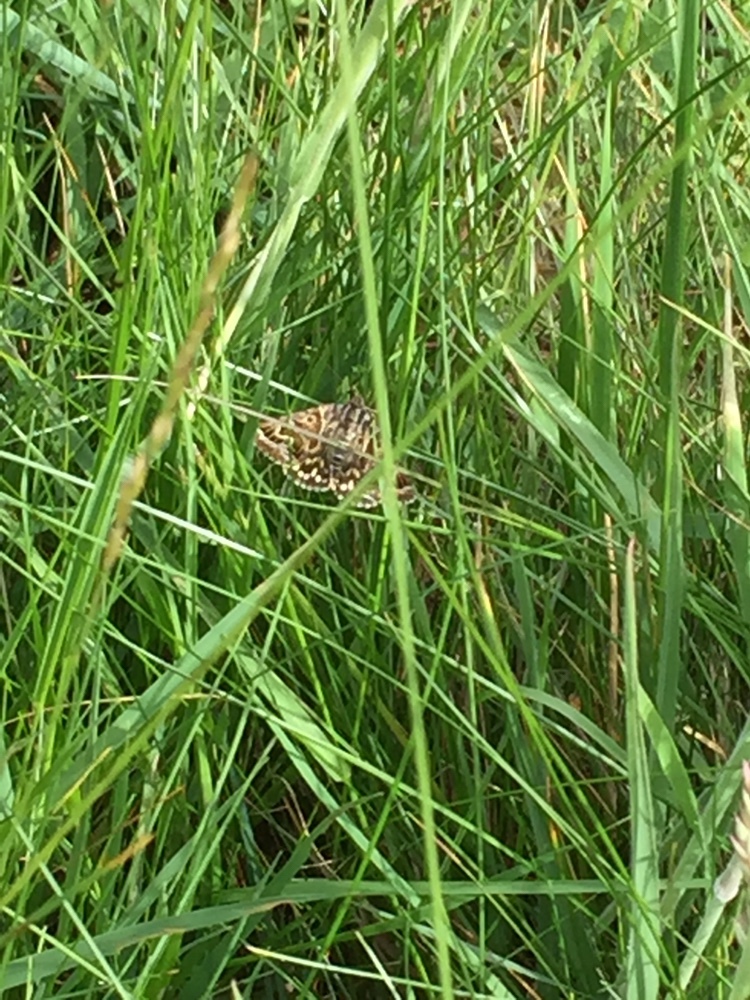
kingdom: Animalia
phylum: Arthropoda
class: Insecta
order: Lepidoptera
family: Erebidae
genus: Callistege
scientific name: Callistege mi
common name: Mother shipton
